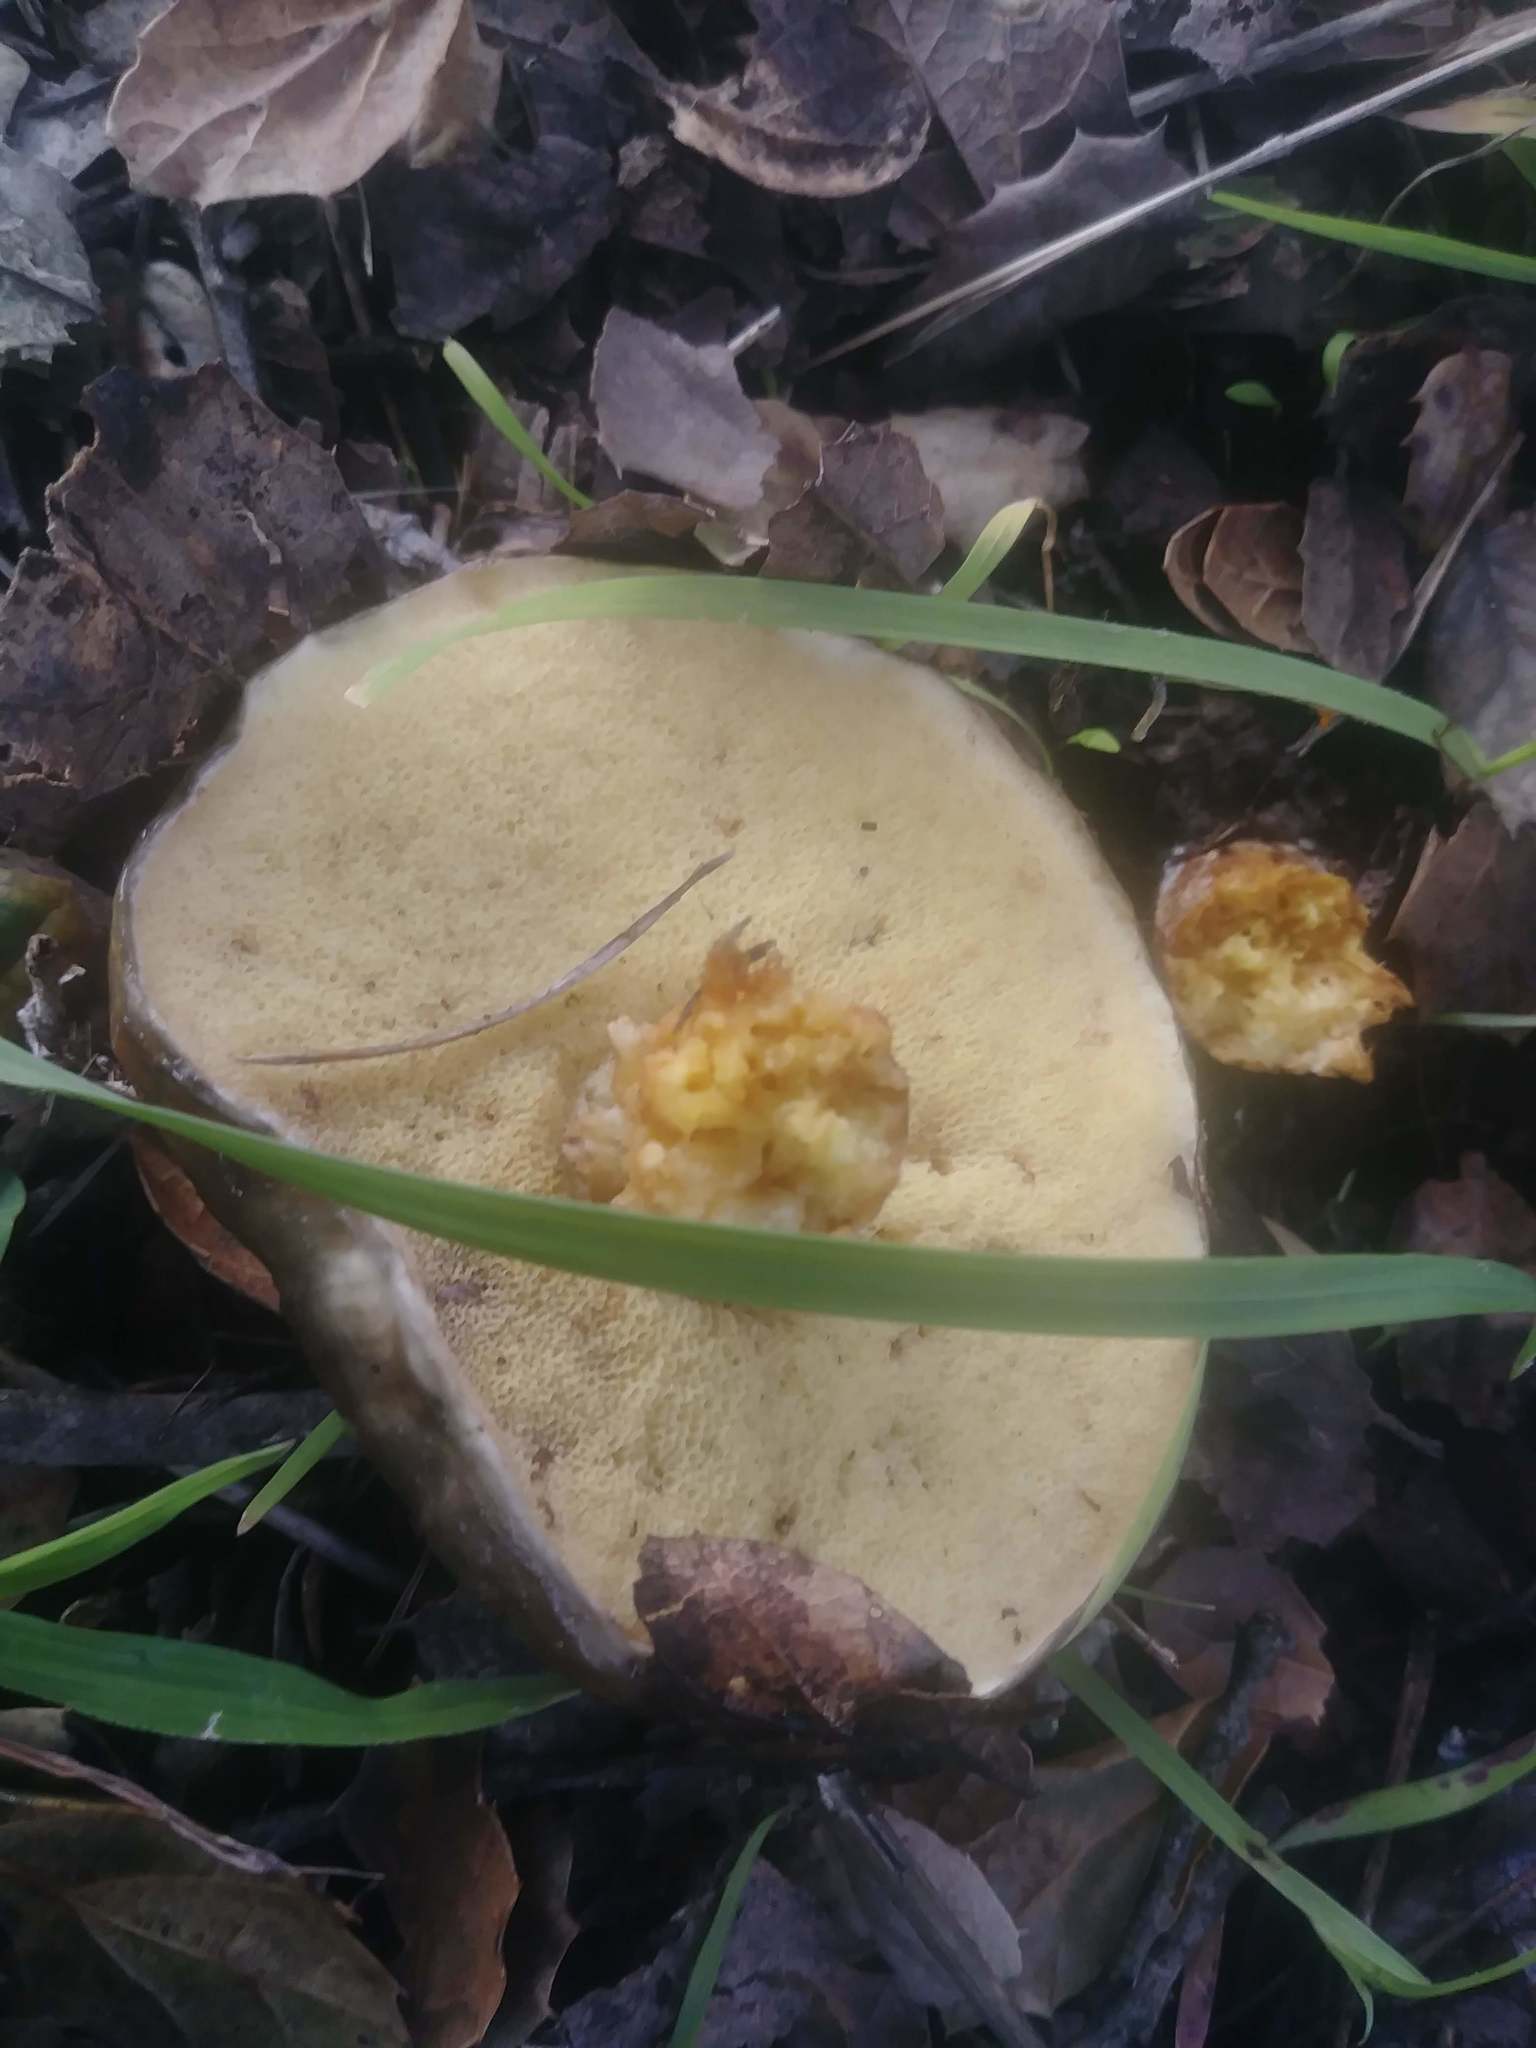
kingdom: Fungi
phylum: Basidiomycota
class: Agaricomycetes
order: Boletales
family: Suillaceae
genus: Suillus
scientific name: Suillus pungens
